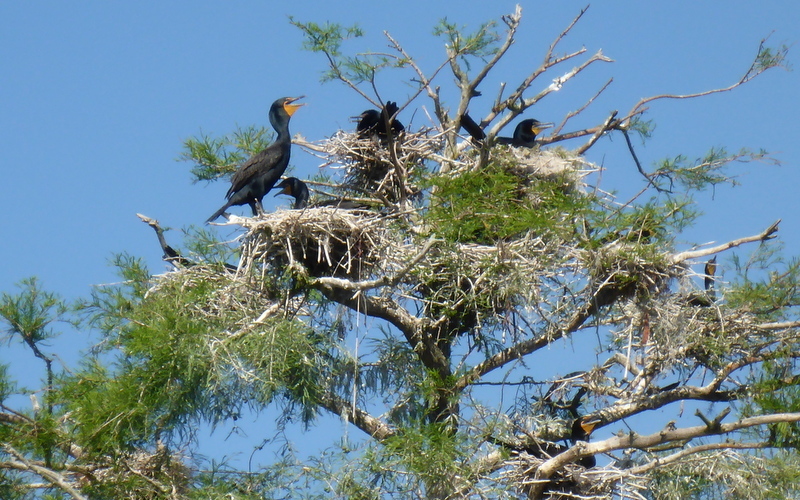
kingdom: Animalia
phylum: Chordata
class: Aves
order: Suliformes
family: Phalacrocoracidae
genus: Phalacrocorax
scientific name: Phalacrocorax auritus
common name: Double-crested cormorant
